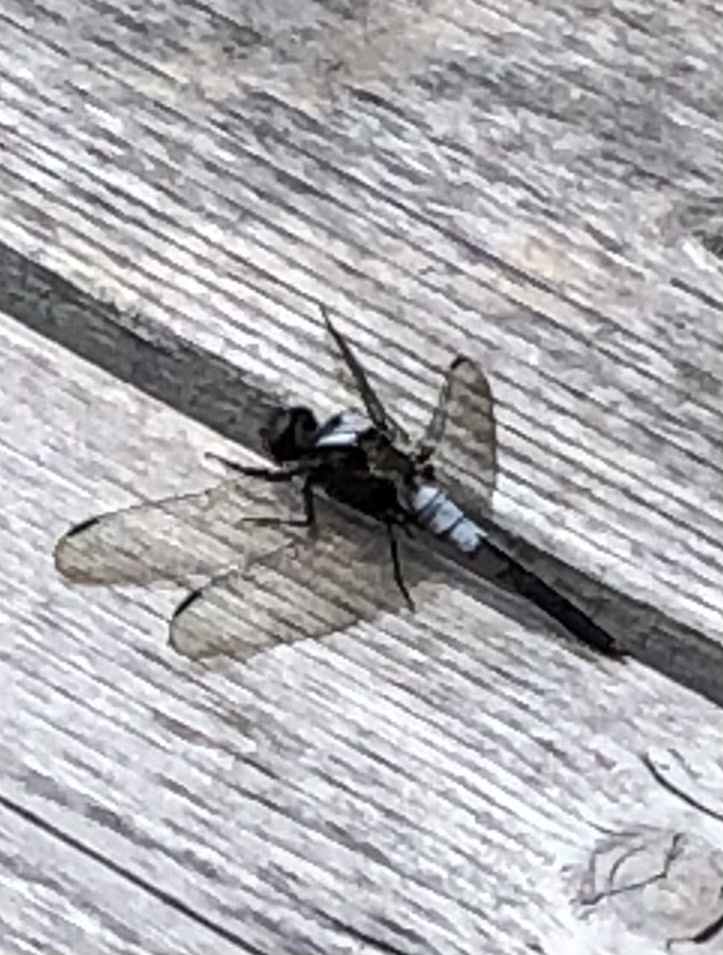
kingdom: Animalia
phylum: Arthropoda
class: Insecta
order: Odonata
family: Libellulidae
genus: Ladona
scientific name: Ladona julia
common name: Chalk-fronted corporal
